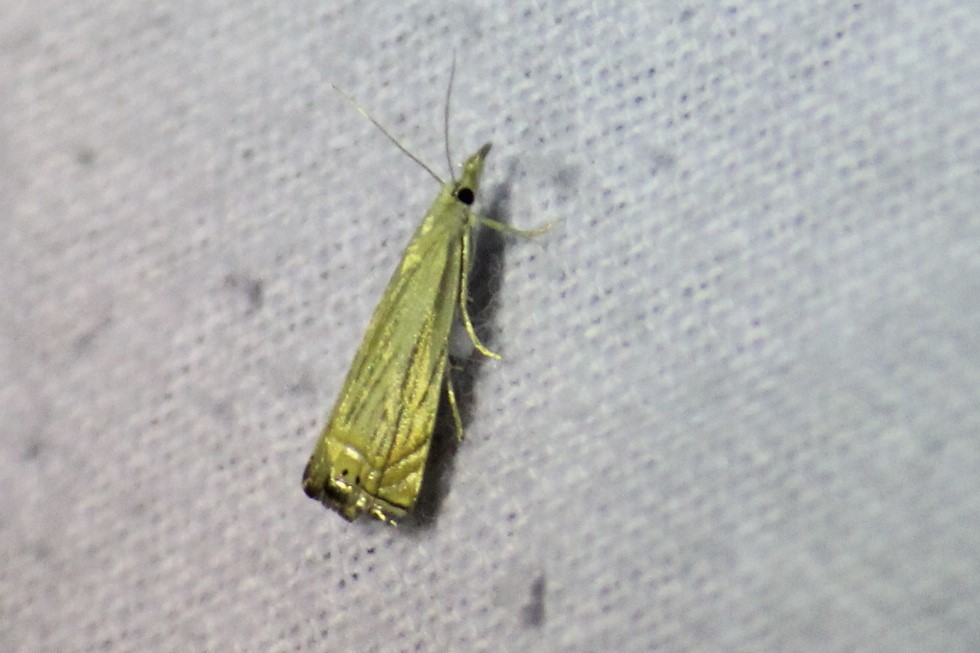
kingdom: Animalia
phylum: Arthropoda
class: Insecta
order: Lepidoptera
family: Crambidae
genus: Chrysoteuchia
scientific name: Chrysoteuchia topiarius
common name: Topiary grass-veneer
